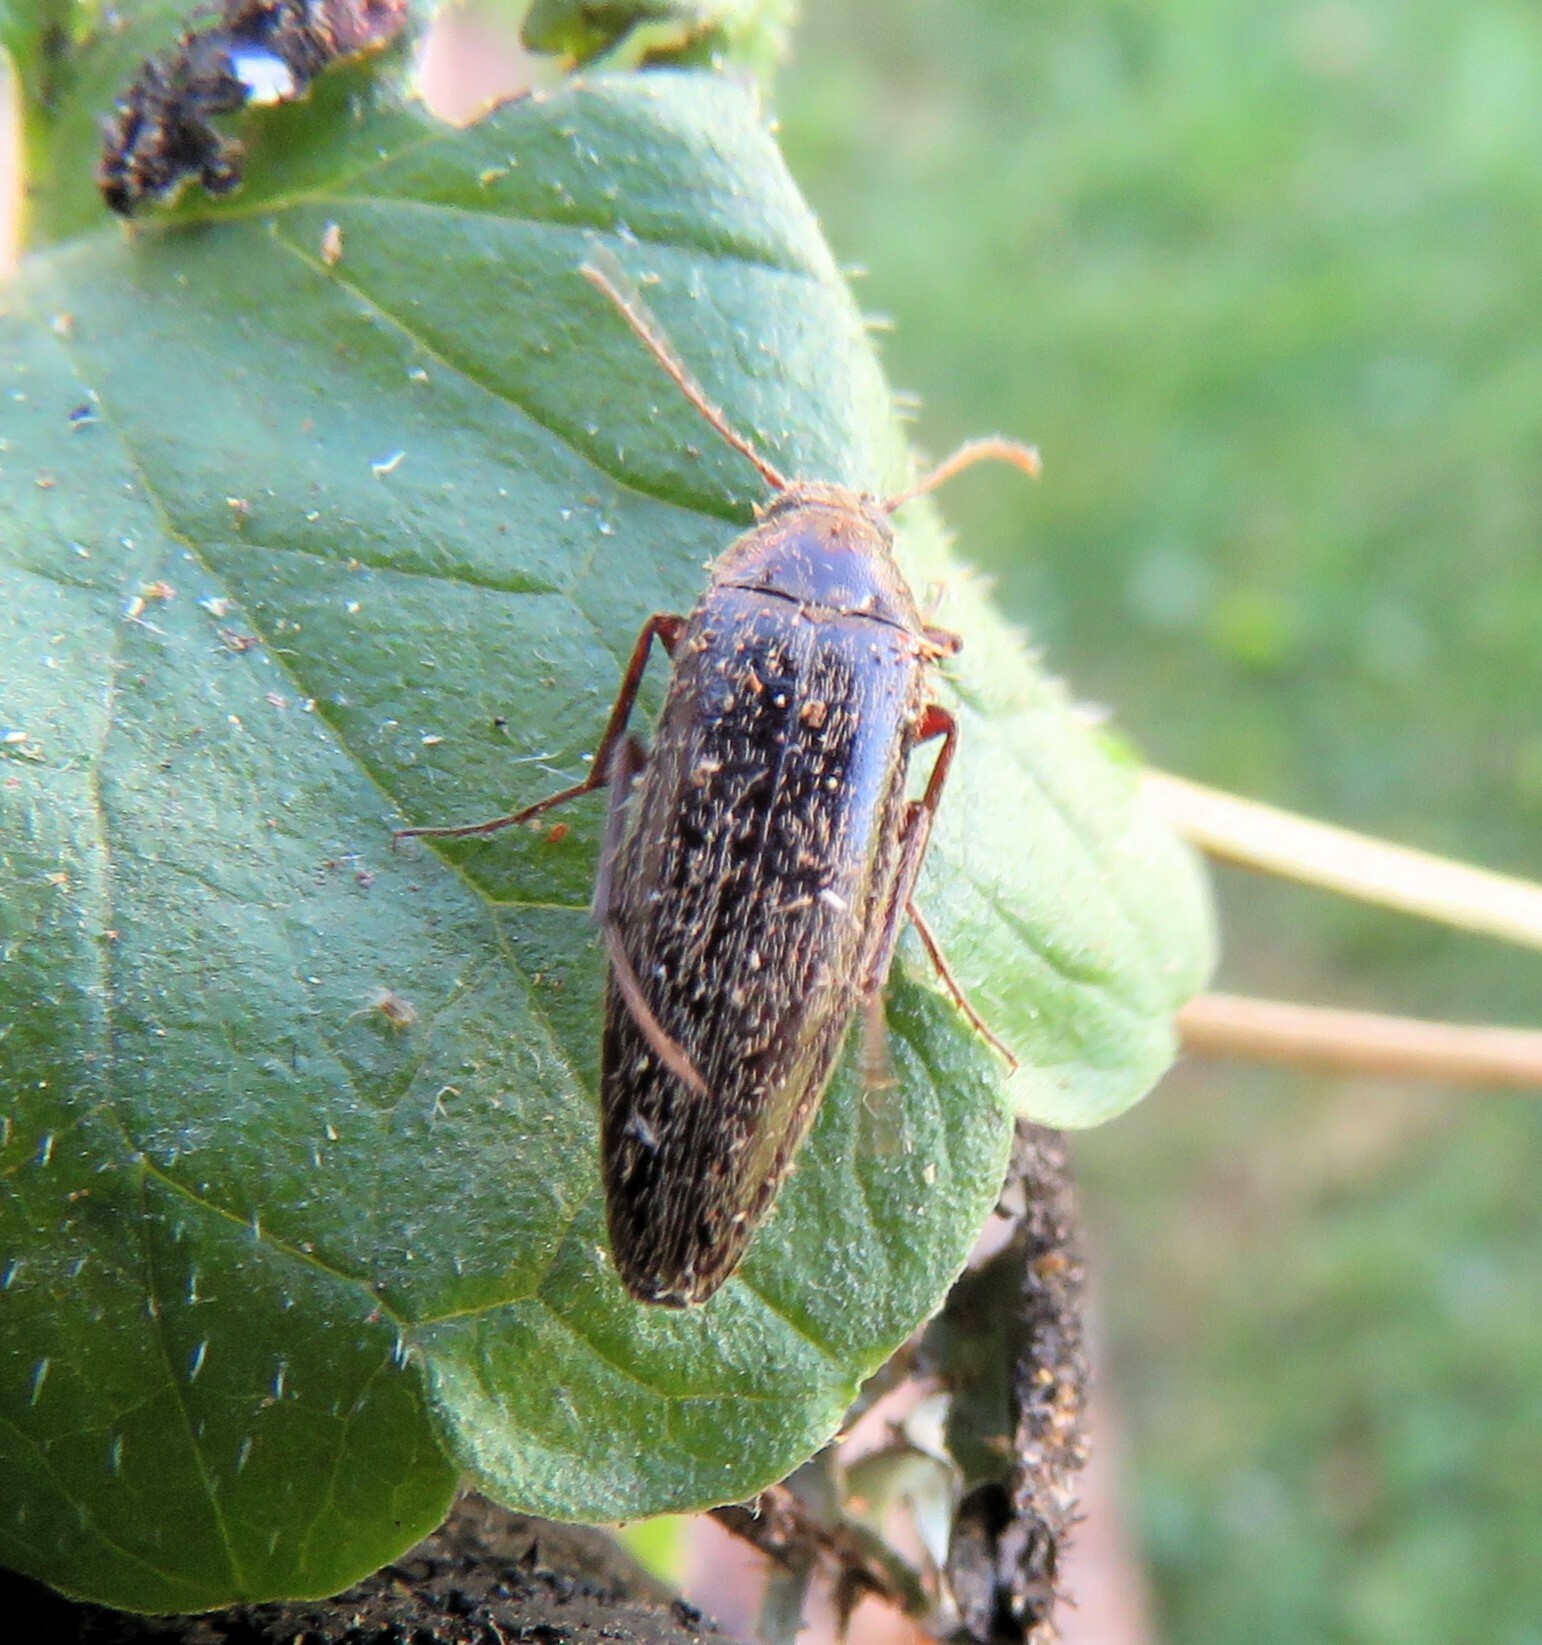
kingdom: Animalia
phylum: Arthropoda
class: Insecta
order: Coleoptera
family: Synchroidae
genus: Synchroa
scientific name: Synchroa punctata
